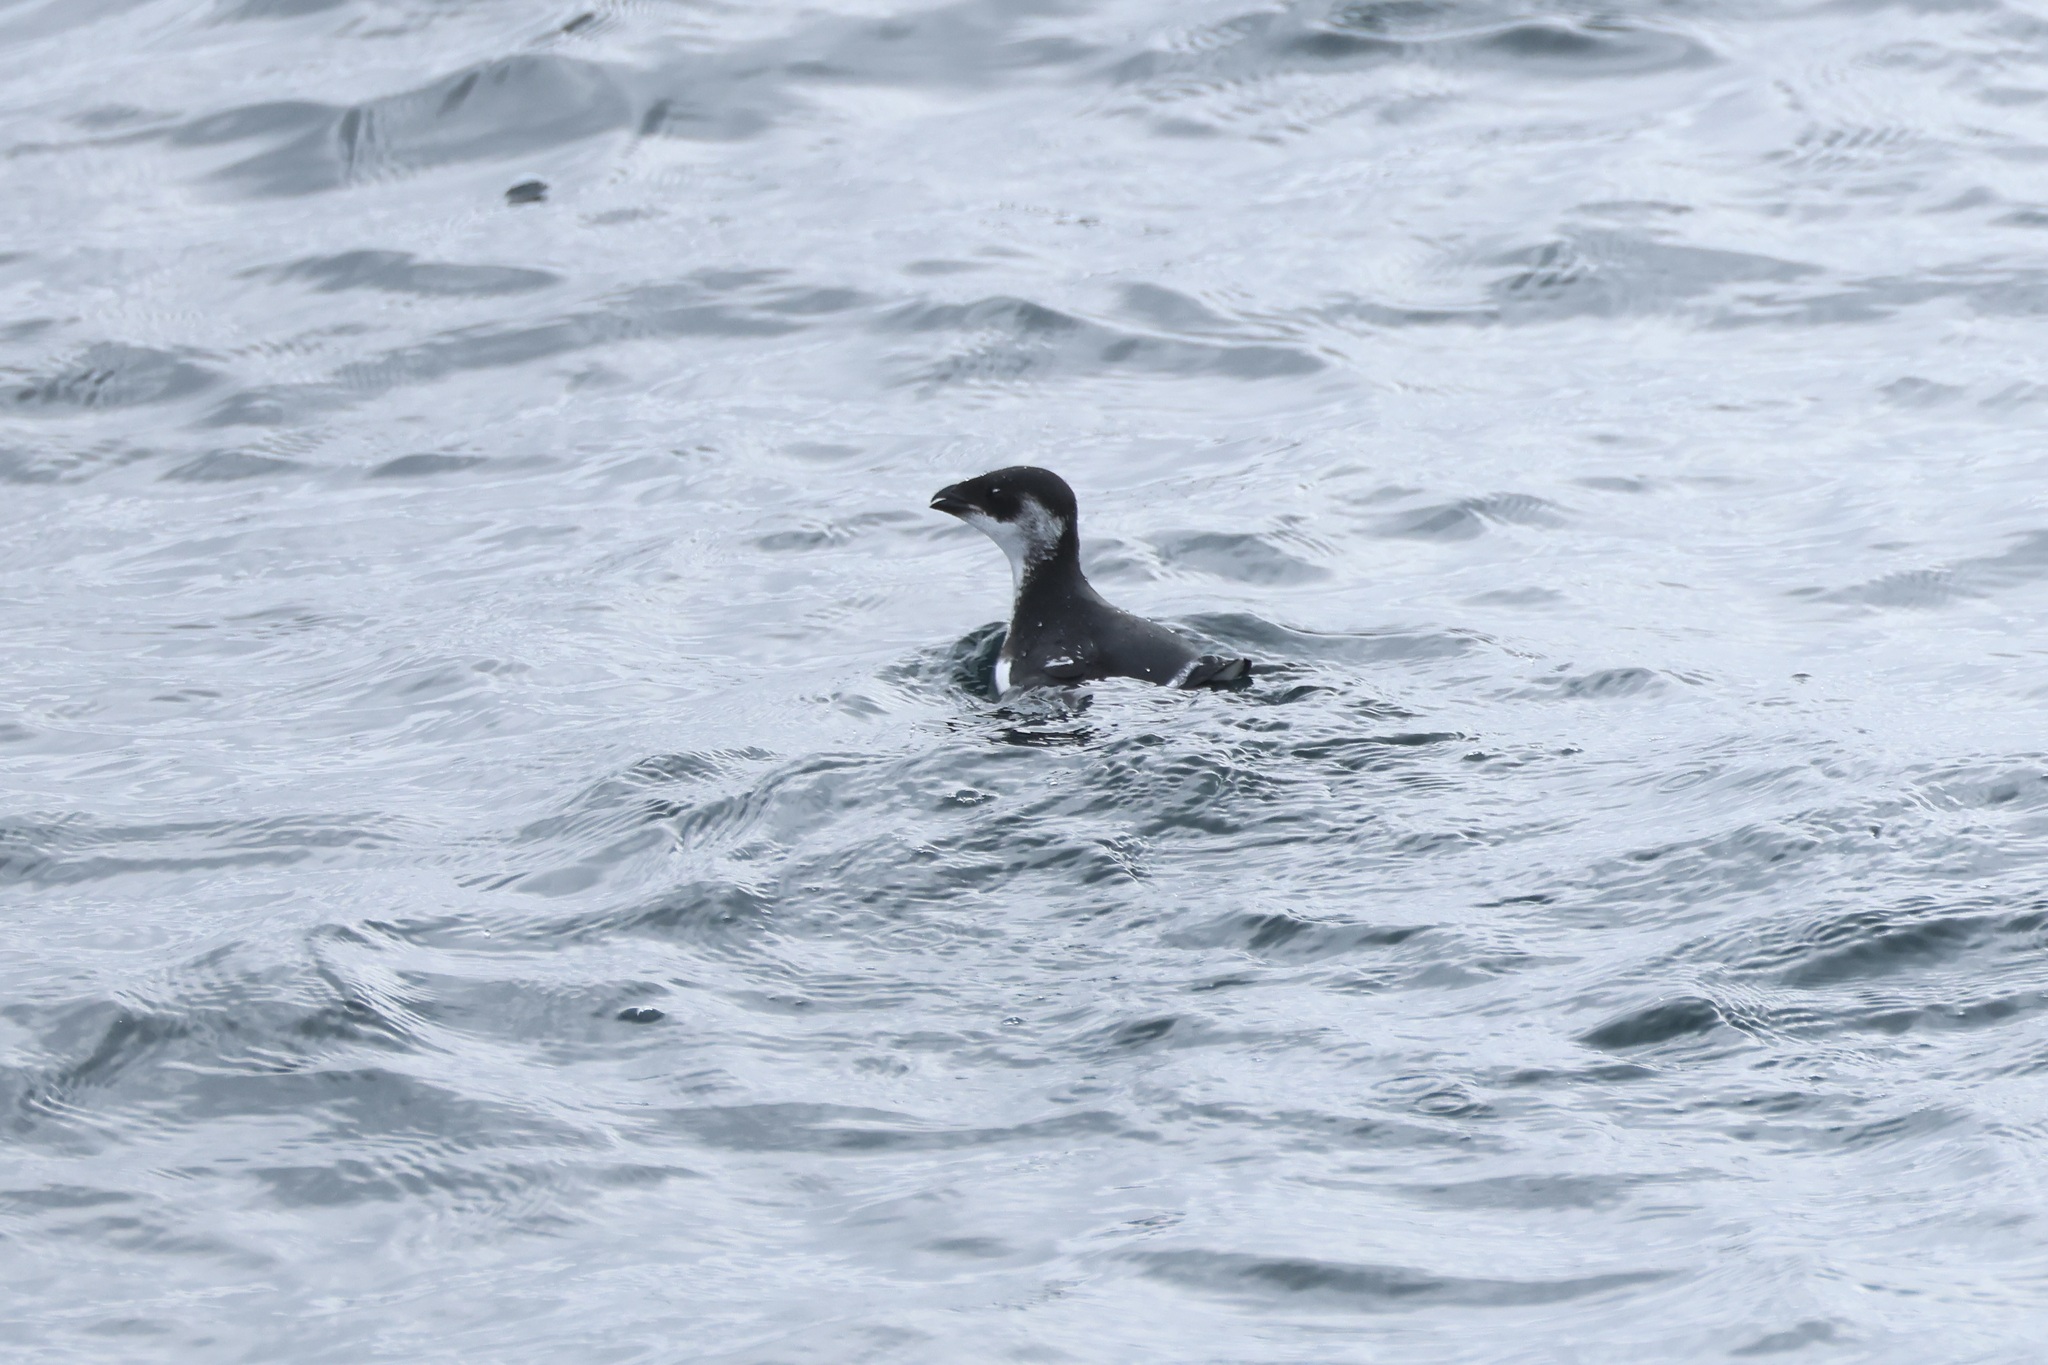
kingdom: Animalia
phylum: Chordata
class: Aves
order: Charadriiformes
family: Alcidae
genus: Alle
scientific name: Alle alle
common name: Little auk
